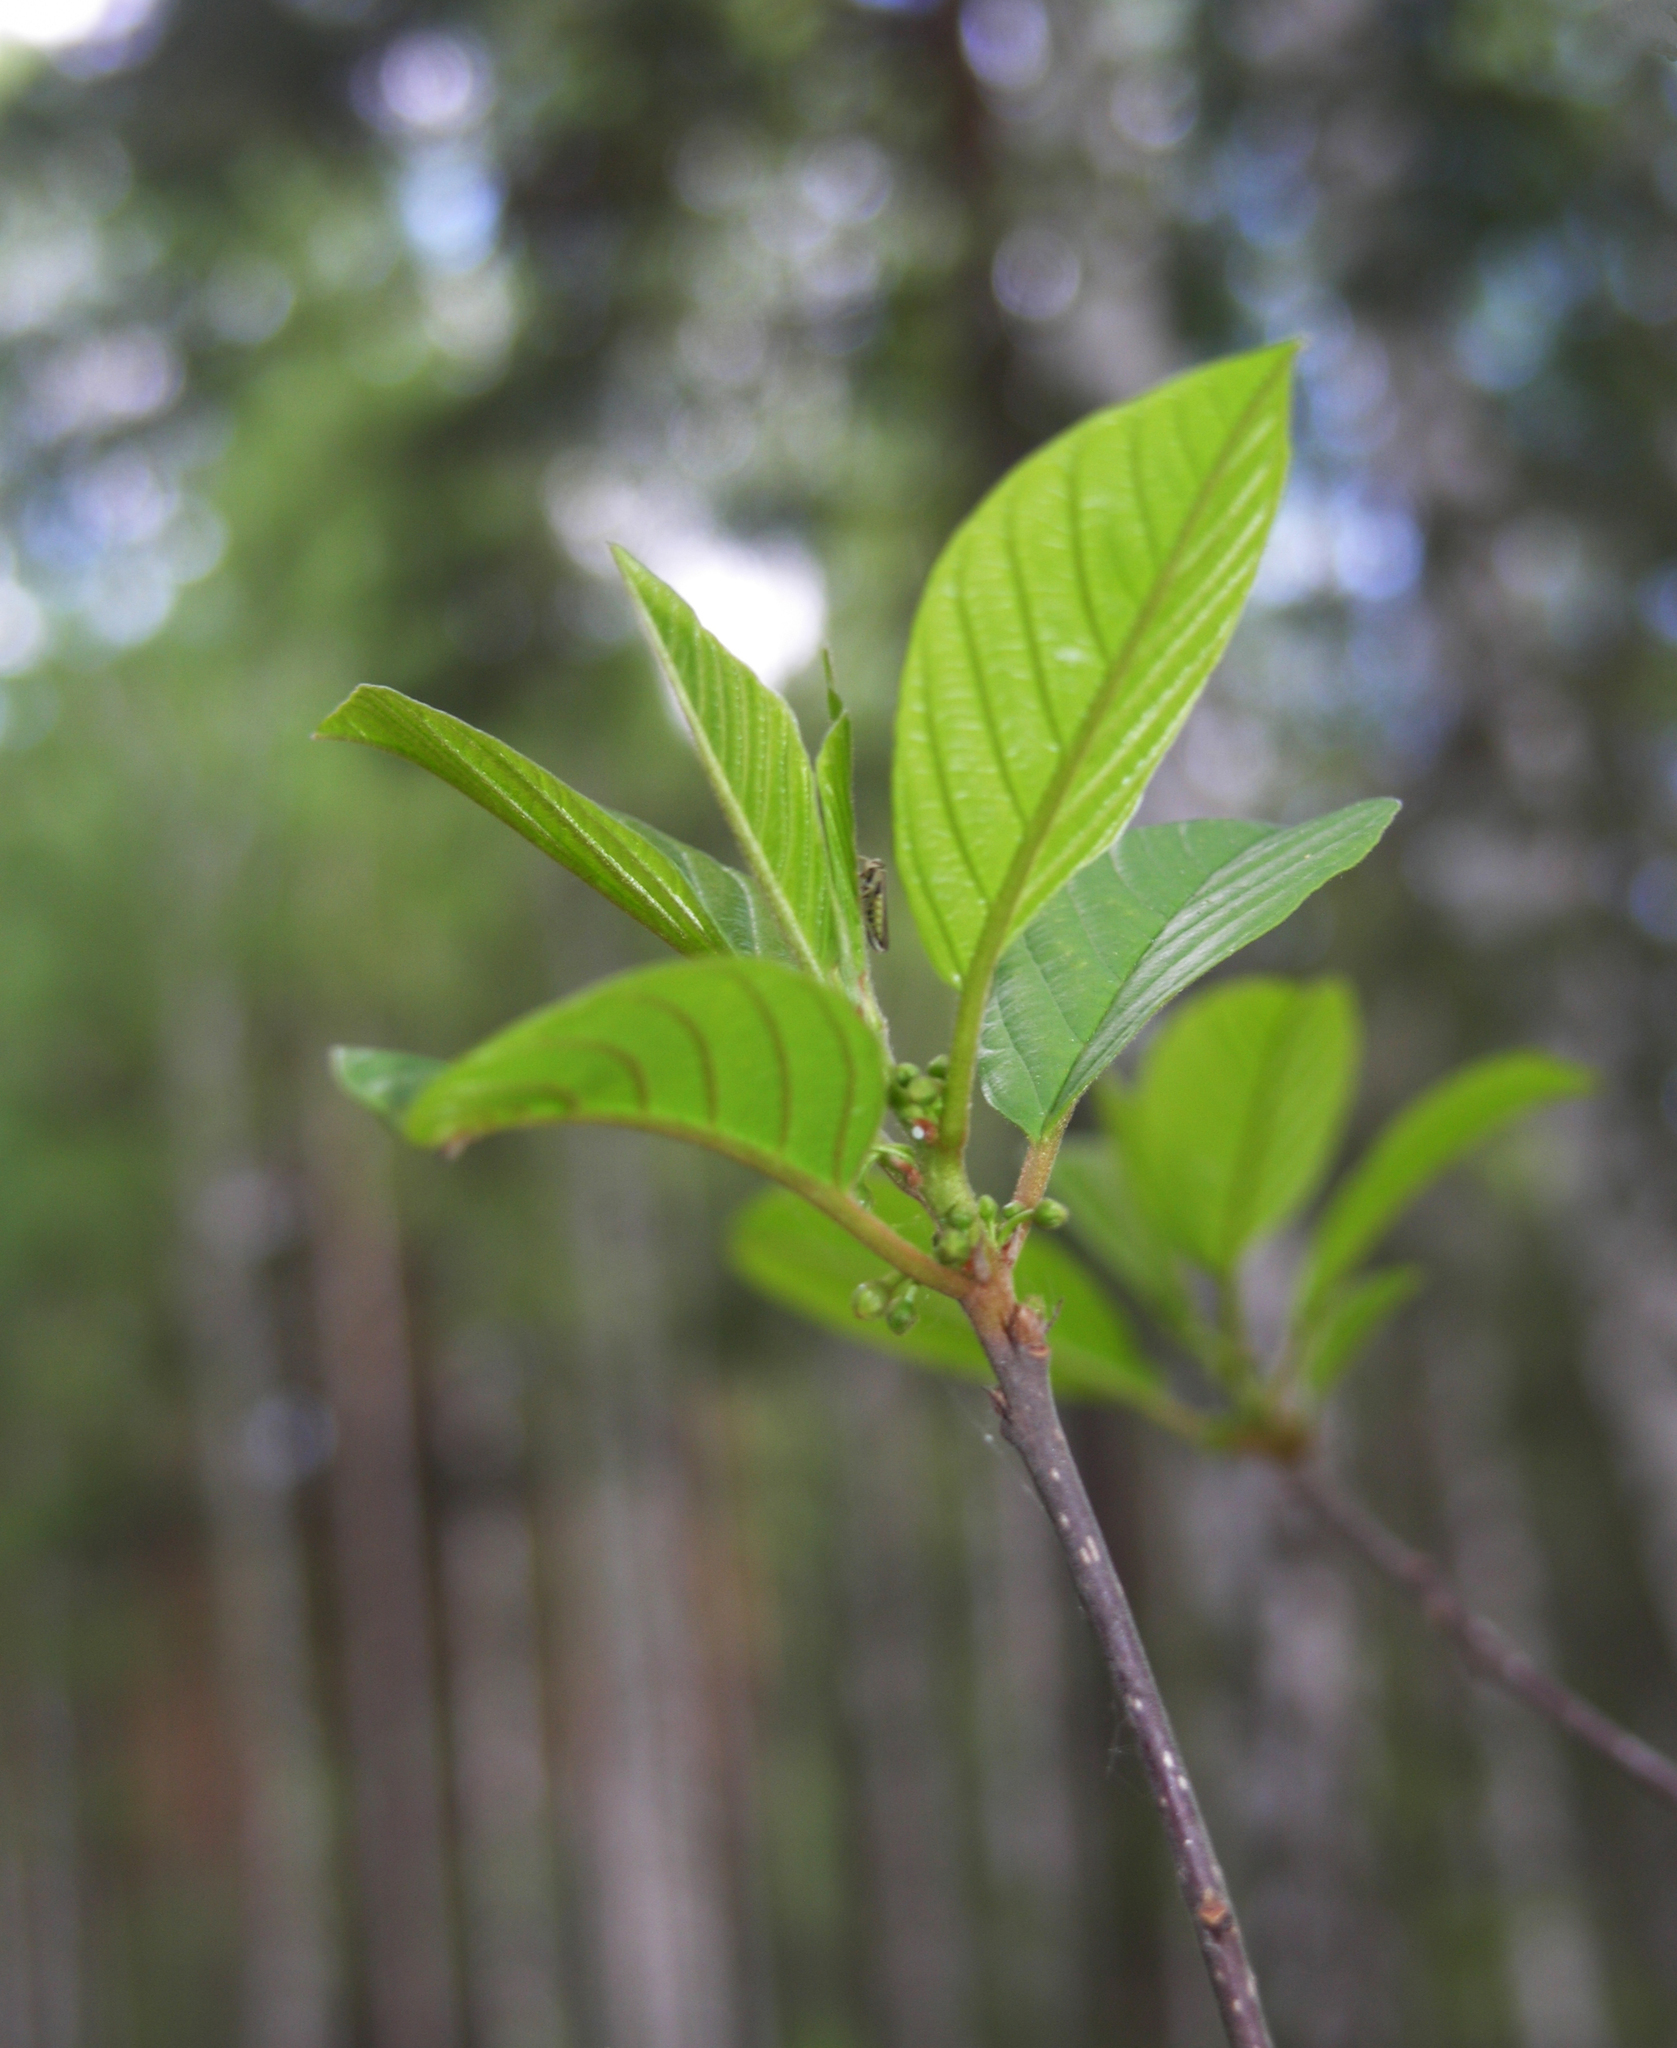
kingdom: Plantae
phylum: Tracheophyta
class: Magnoliopsida
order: Rosales
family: Rhamnaceae
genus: Frangula
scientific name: Frangula alnus
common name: Alder buckthorn
